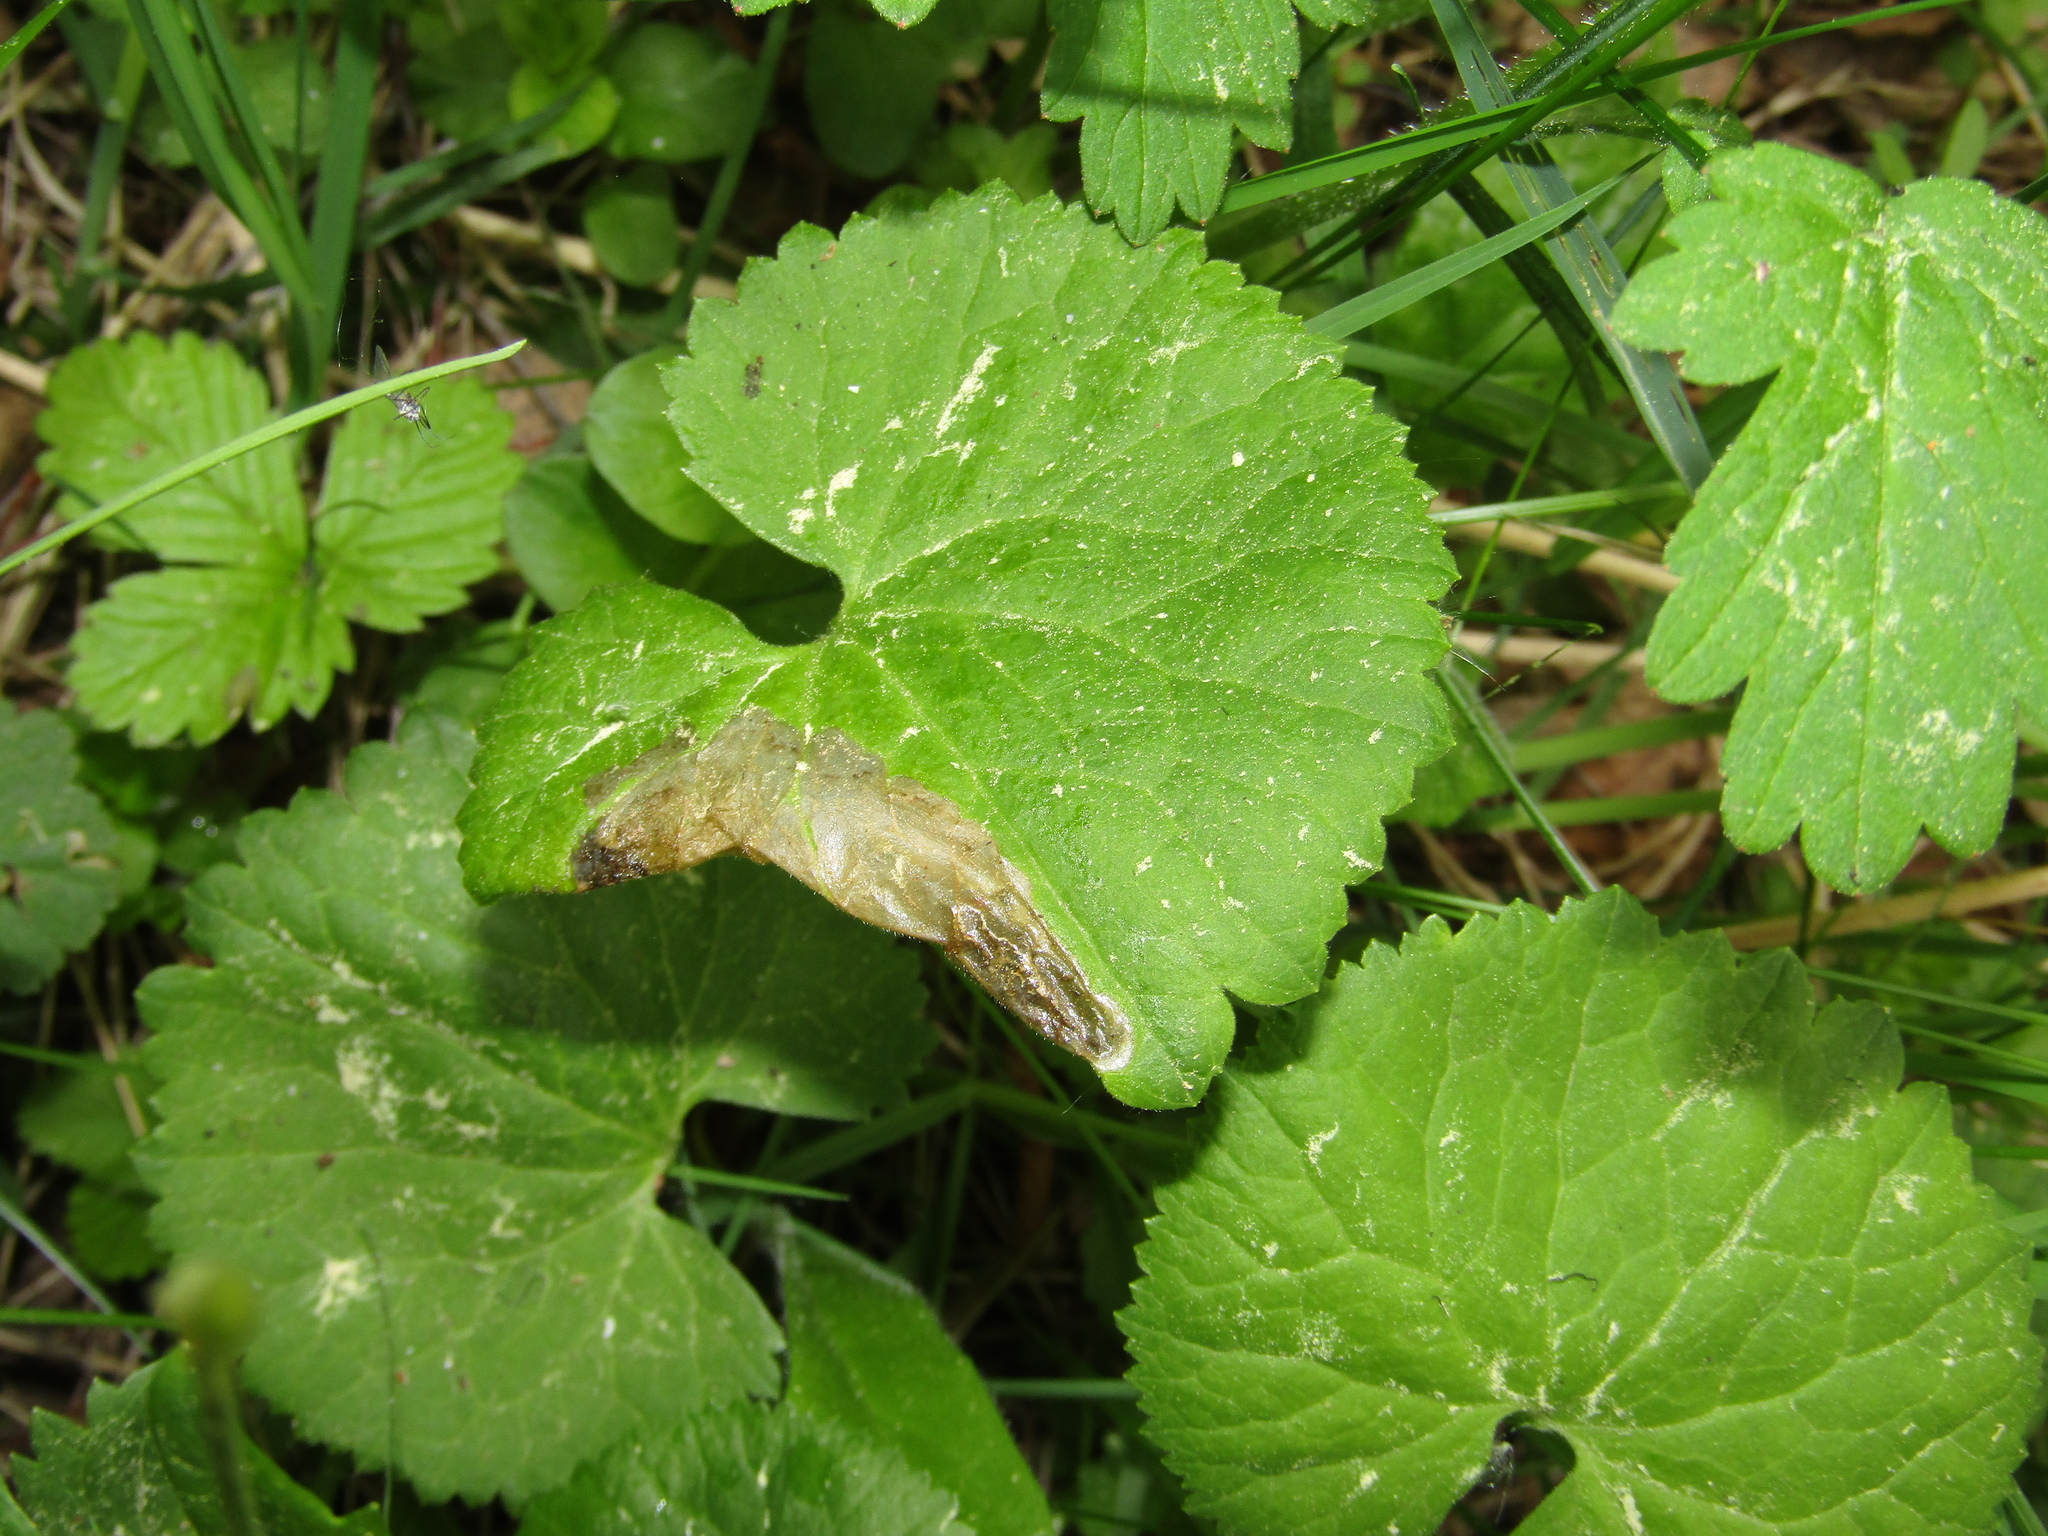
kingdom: Plantae
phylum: Tracheophyta
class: Magnoliopsida
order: Ranunculales
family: Ranunculaceae
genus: Ranunculus
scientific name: Ranunculus cassubicus
